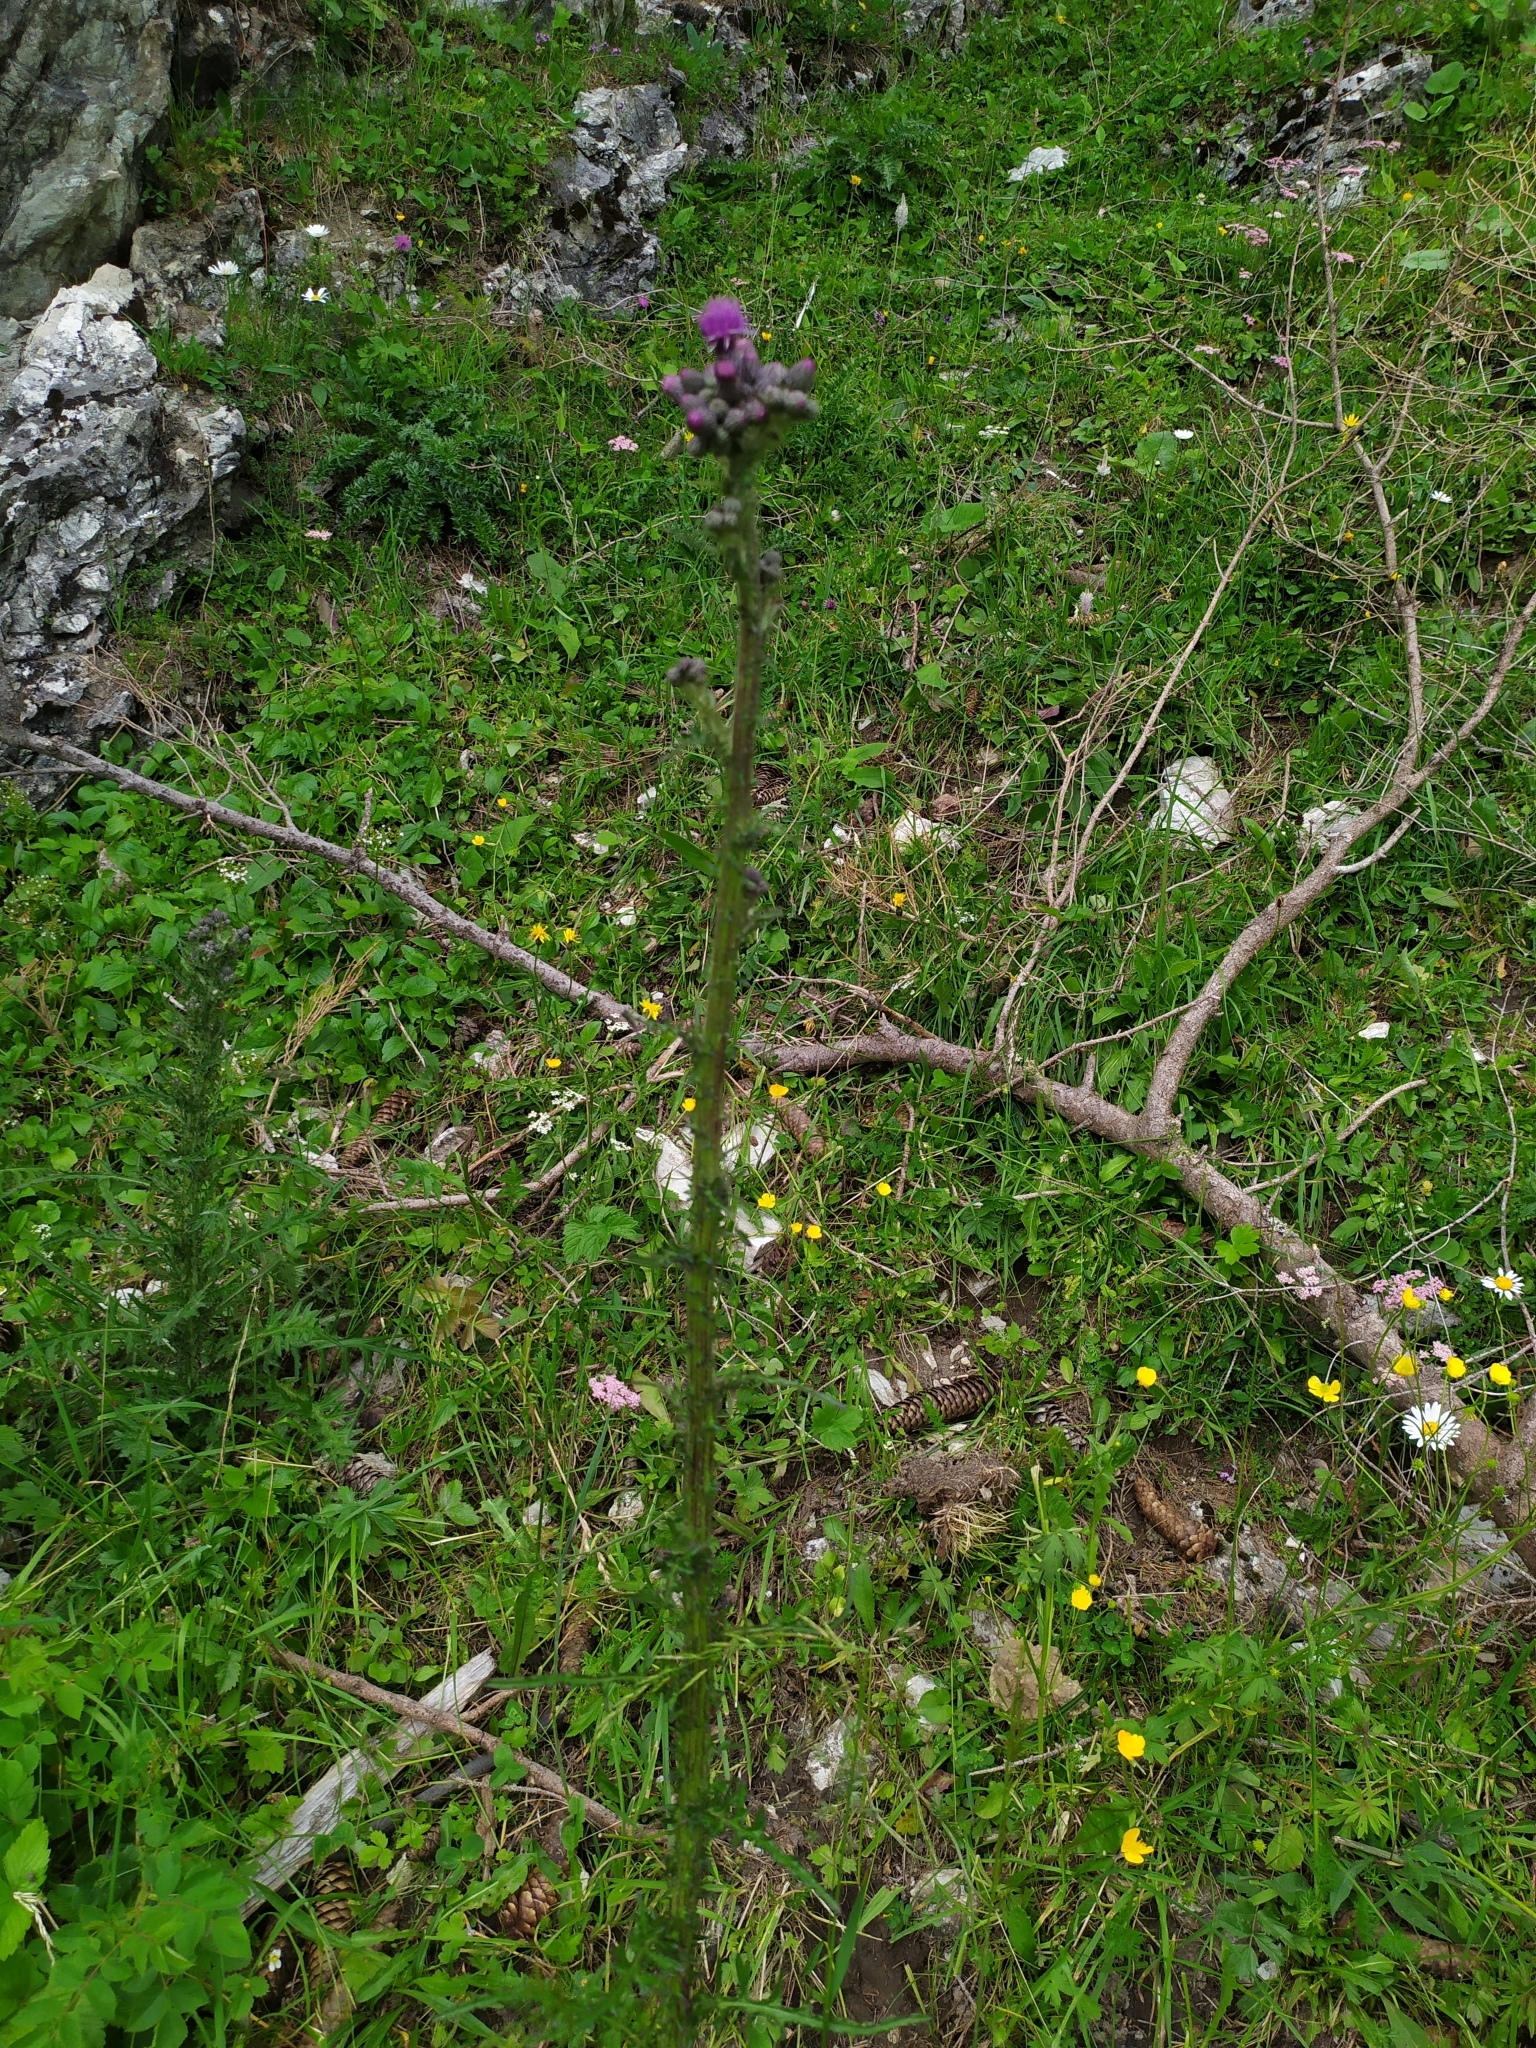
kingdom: Plantae
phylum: Tracheophyta
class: Magnoliopsida
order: Asterales
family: Asteraceae
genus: Cirsium
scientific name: Cirsium palustre
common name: Marsh thistle
